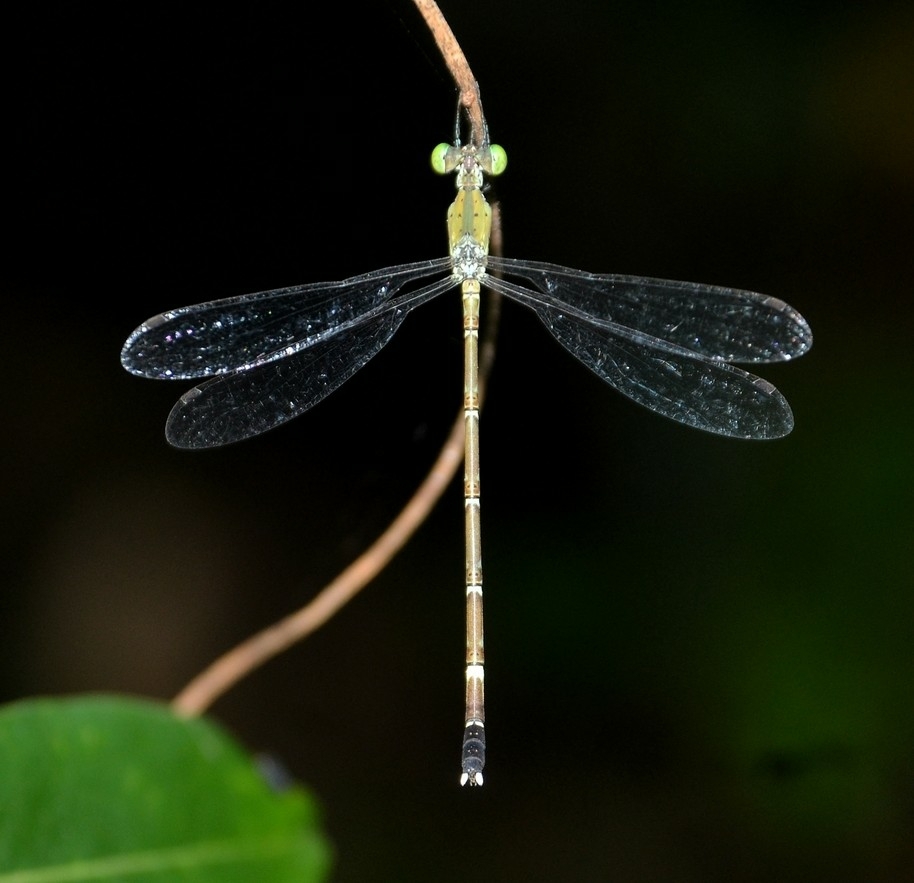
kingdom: Animalia
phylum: Arthropoda
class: Insecta
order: Odonata
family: Lestidae
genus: Platylestes
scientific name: Platylestes kirani
